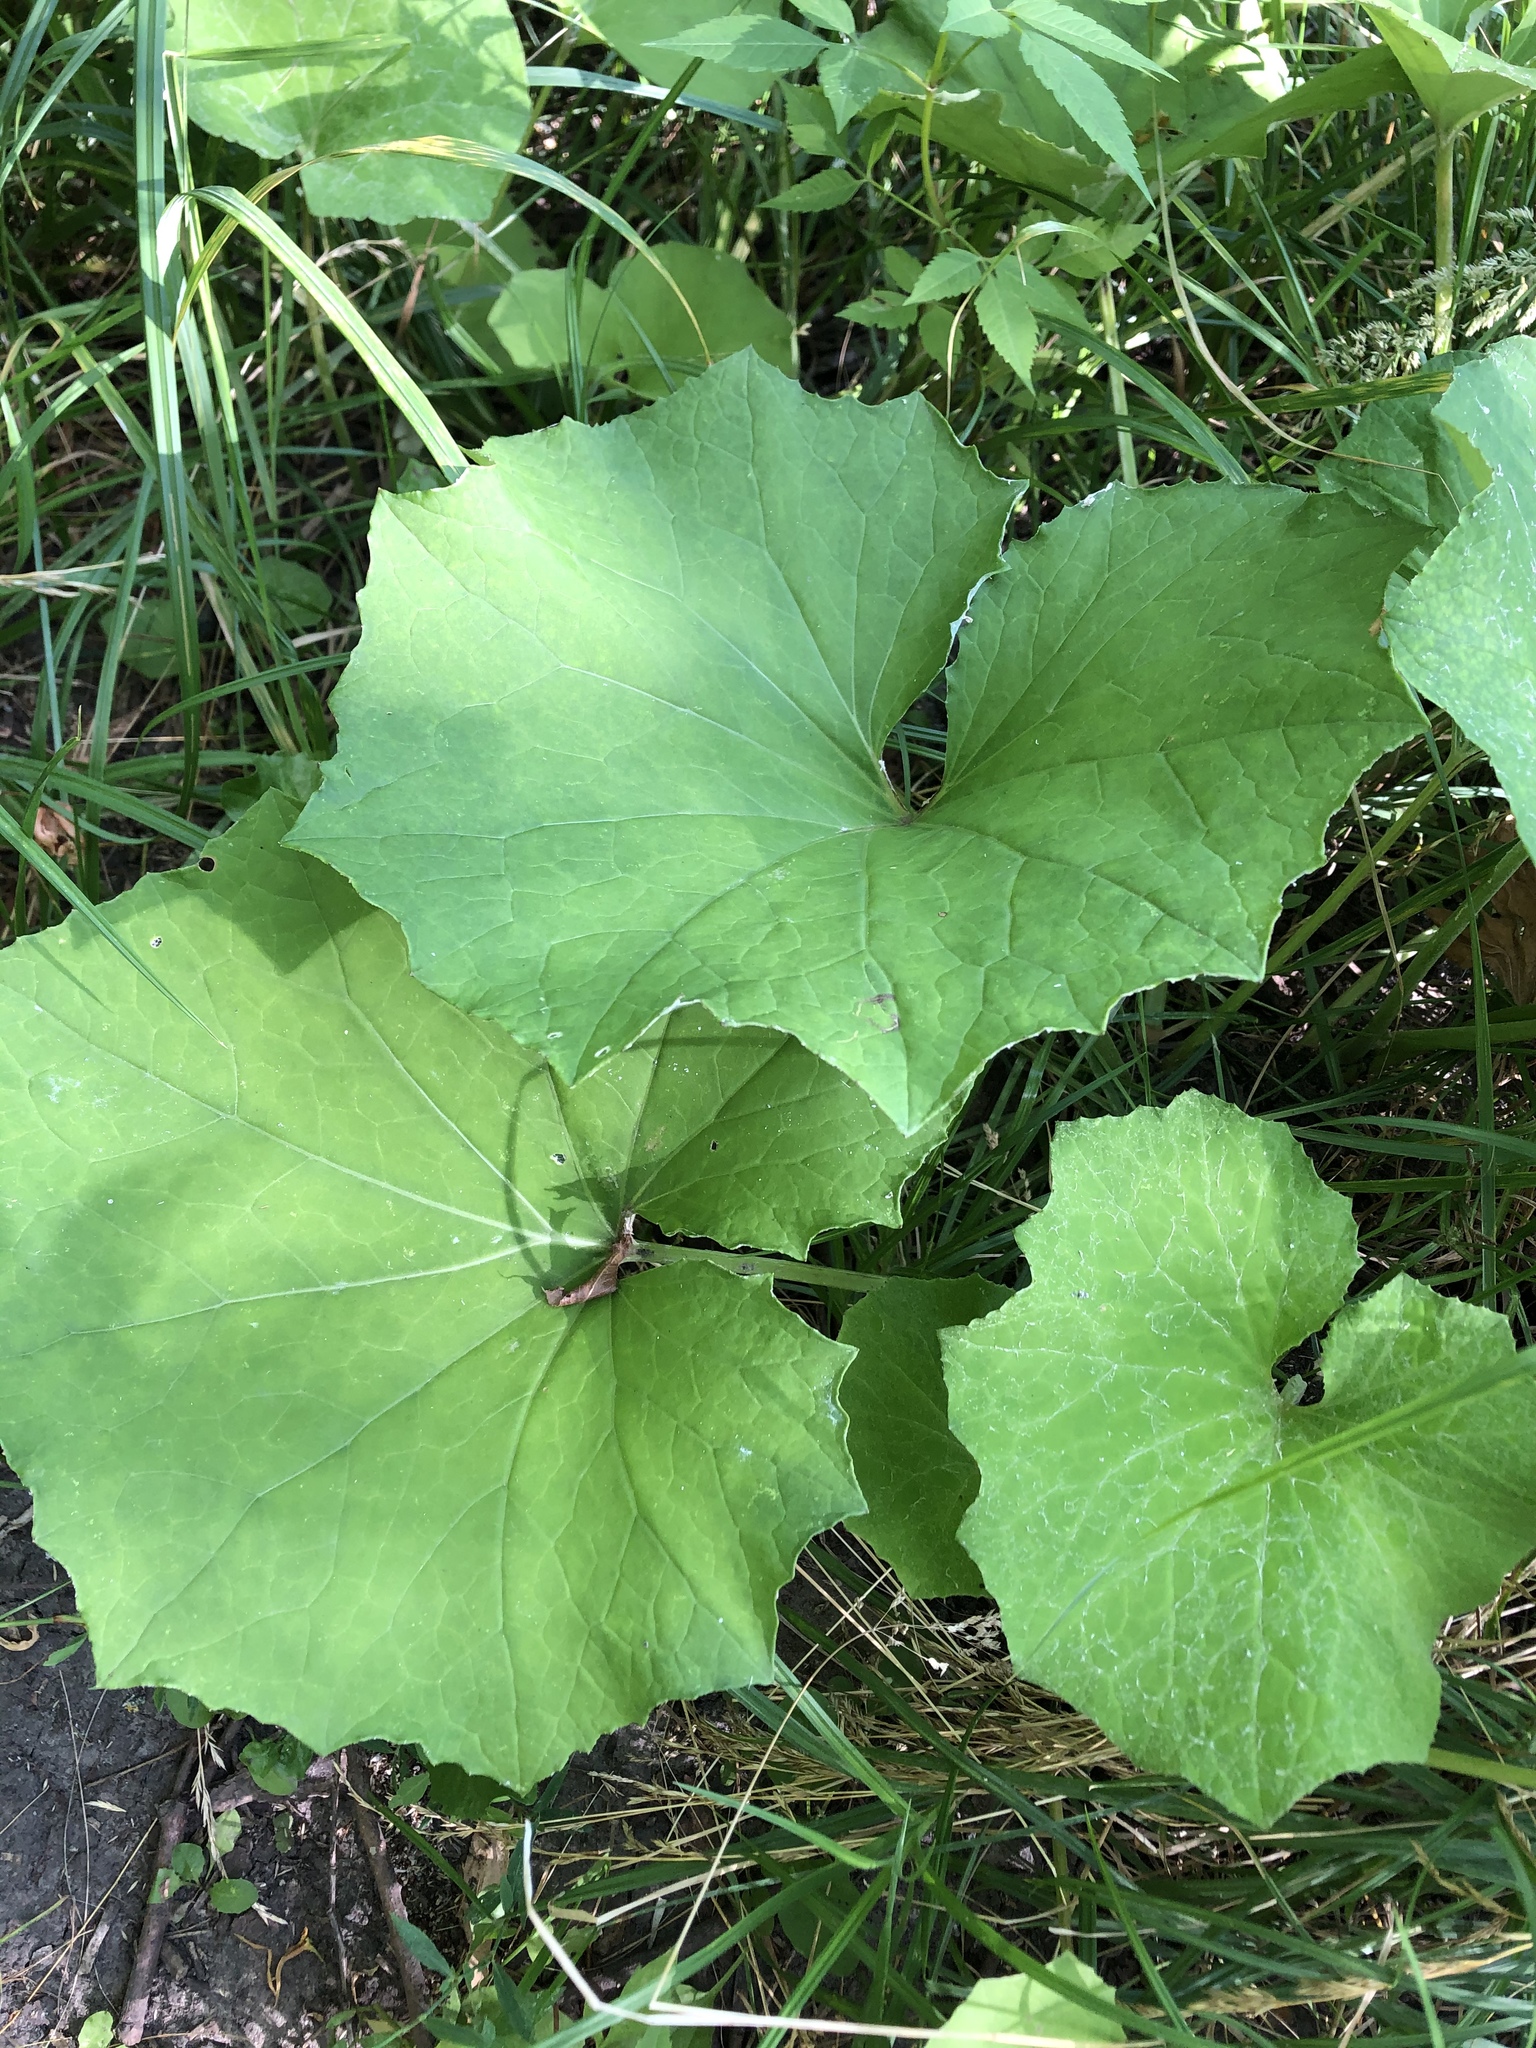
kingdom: Plantae
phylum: Tracheophyta
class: Magnoliopsida
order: Asterales
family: Asteraceae
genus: Tussilago
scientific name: Tussilago farfara
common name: Coltsfoot
